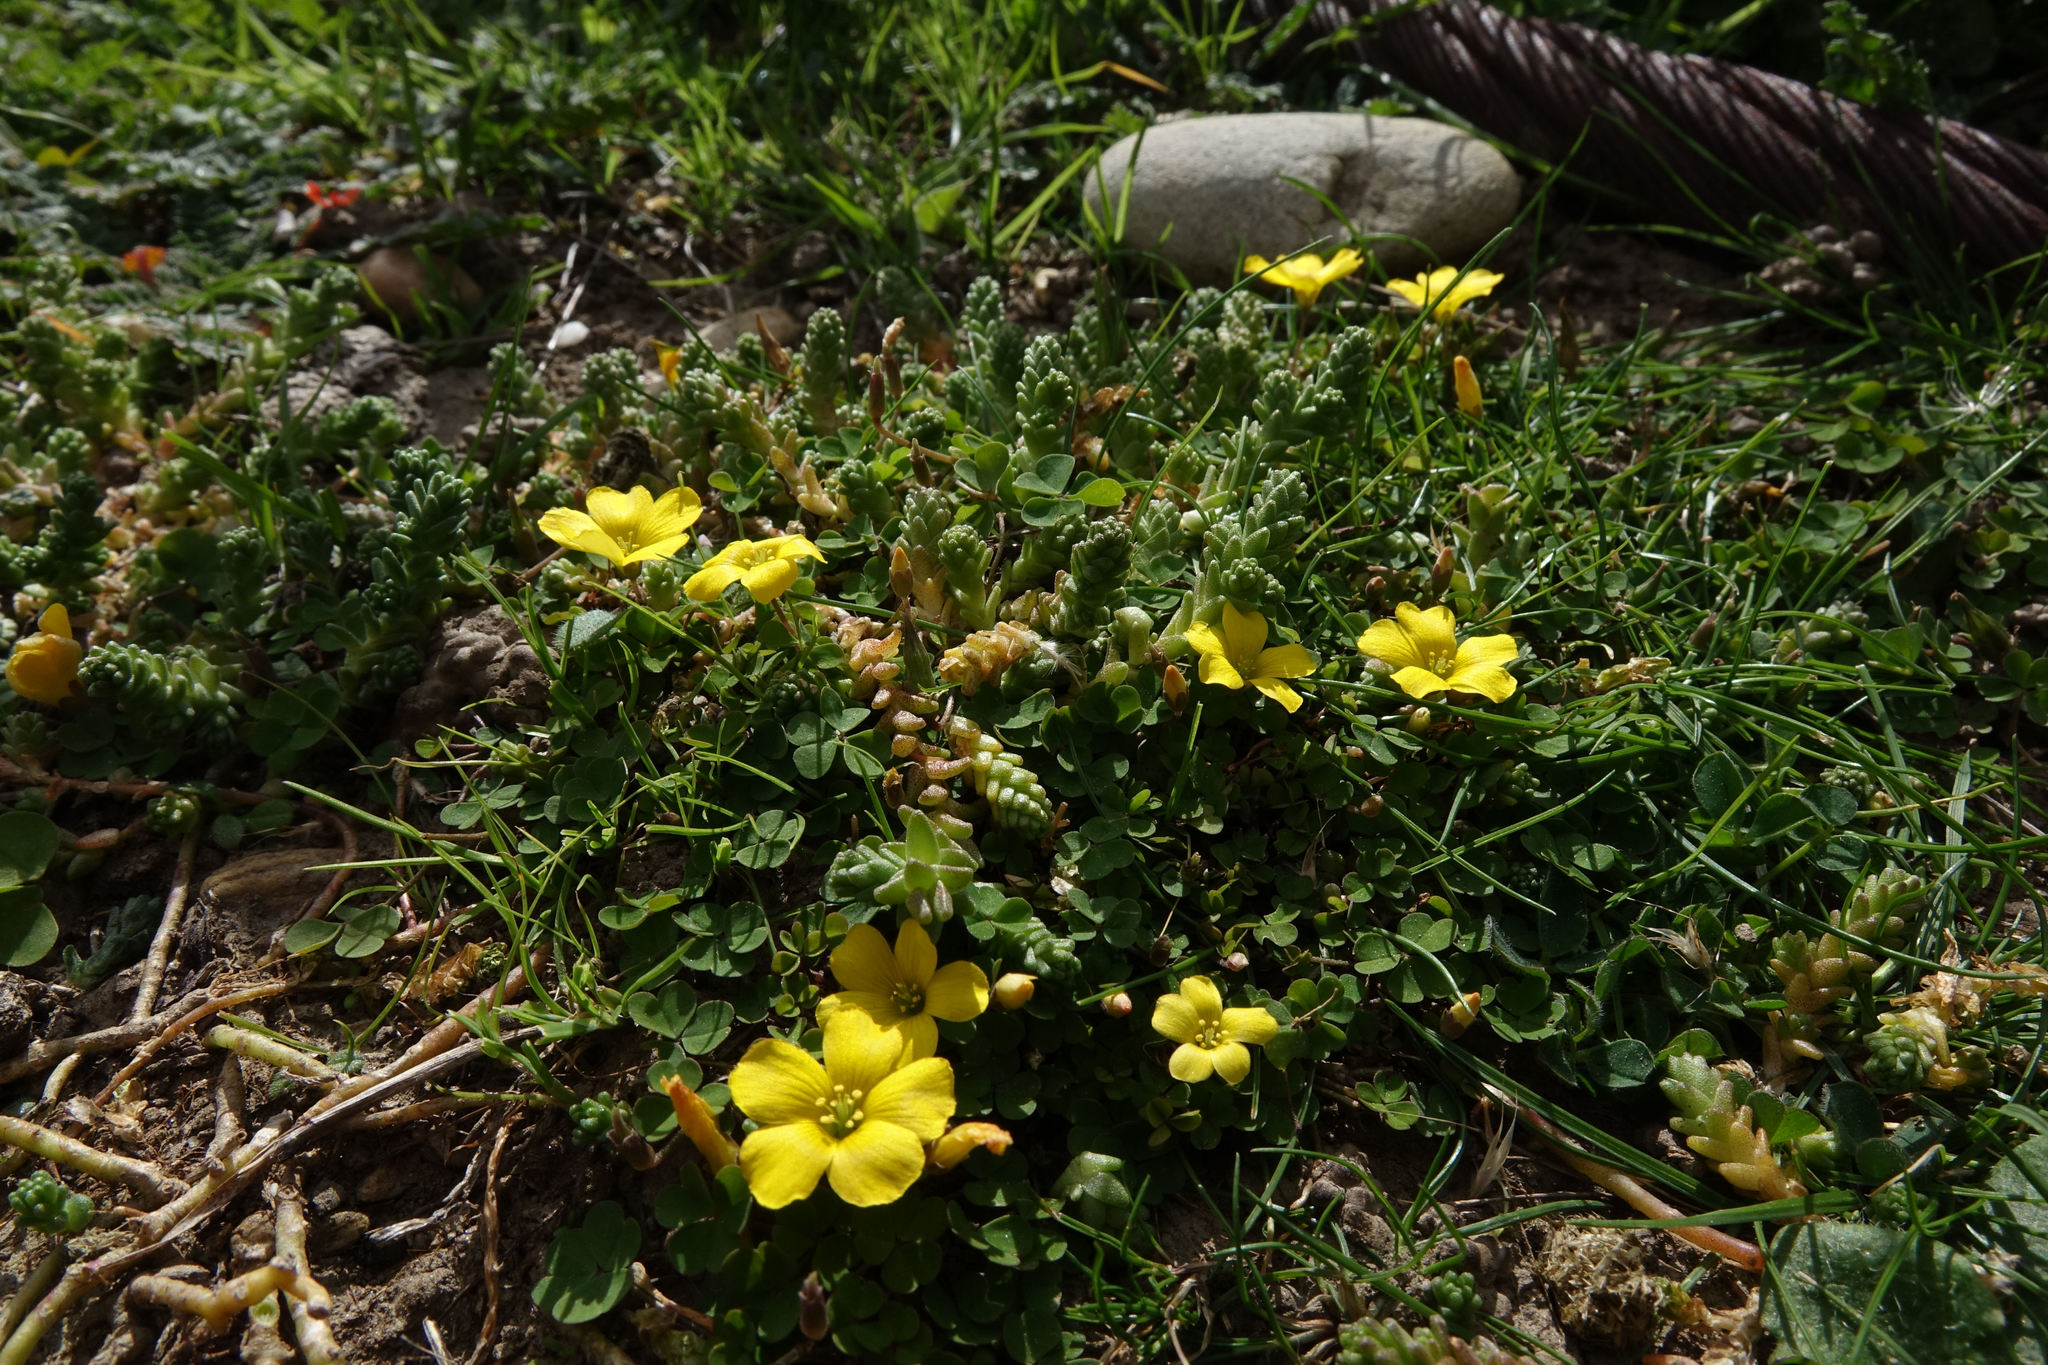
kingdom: Plantae
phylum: Tracheophyta
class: Magnoliopsida
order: Oxalidales
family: Oxalidaceae
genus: Oxalis
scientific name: Oxalis exilis
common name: Least yellow-sorrel
